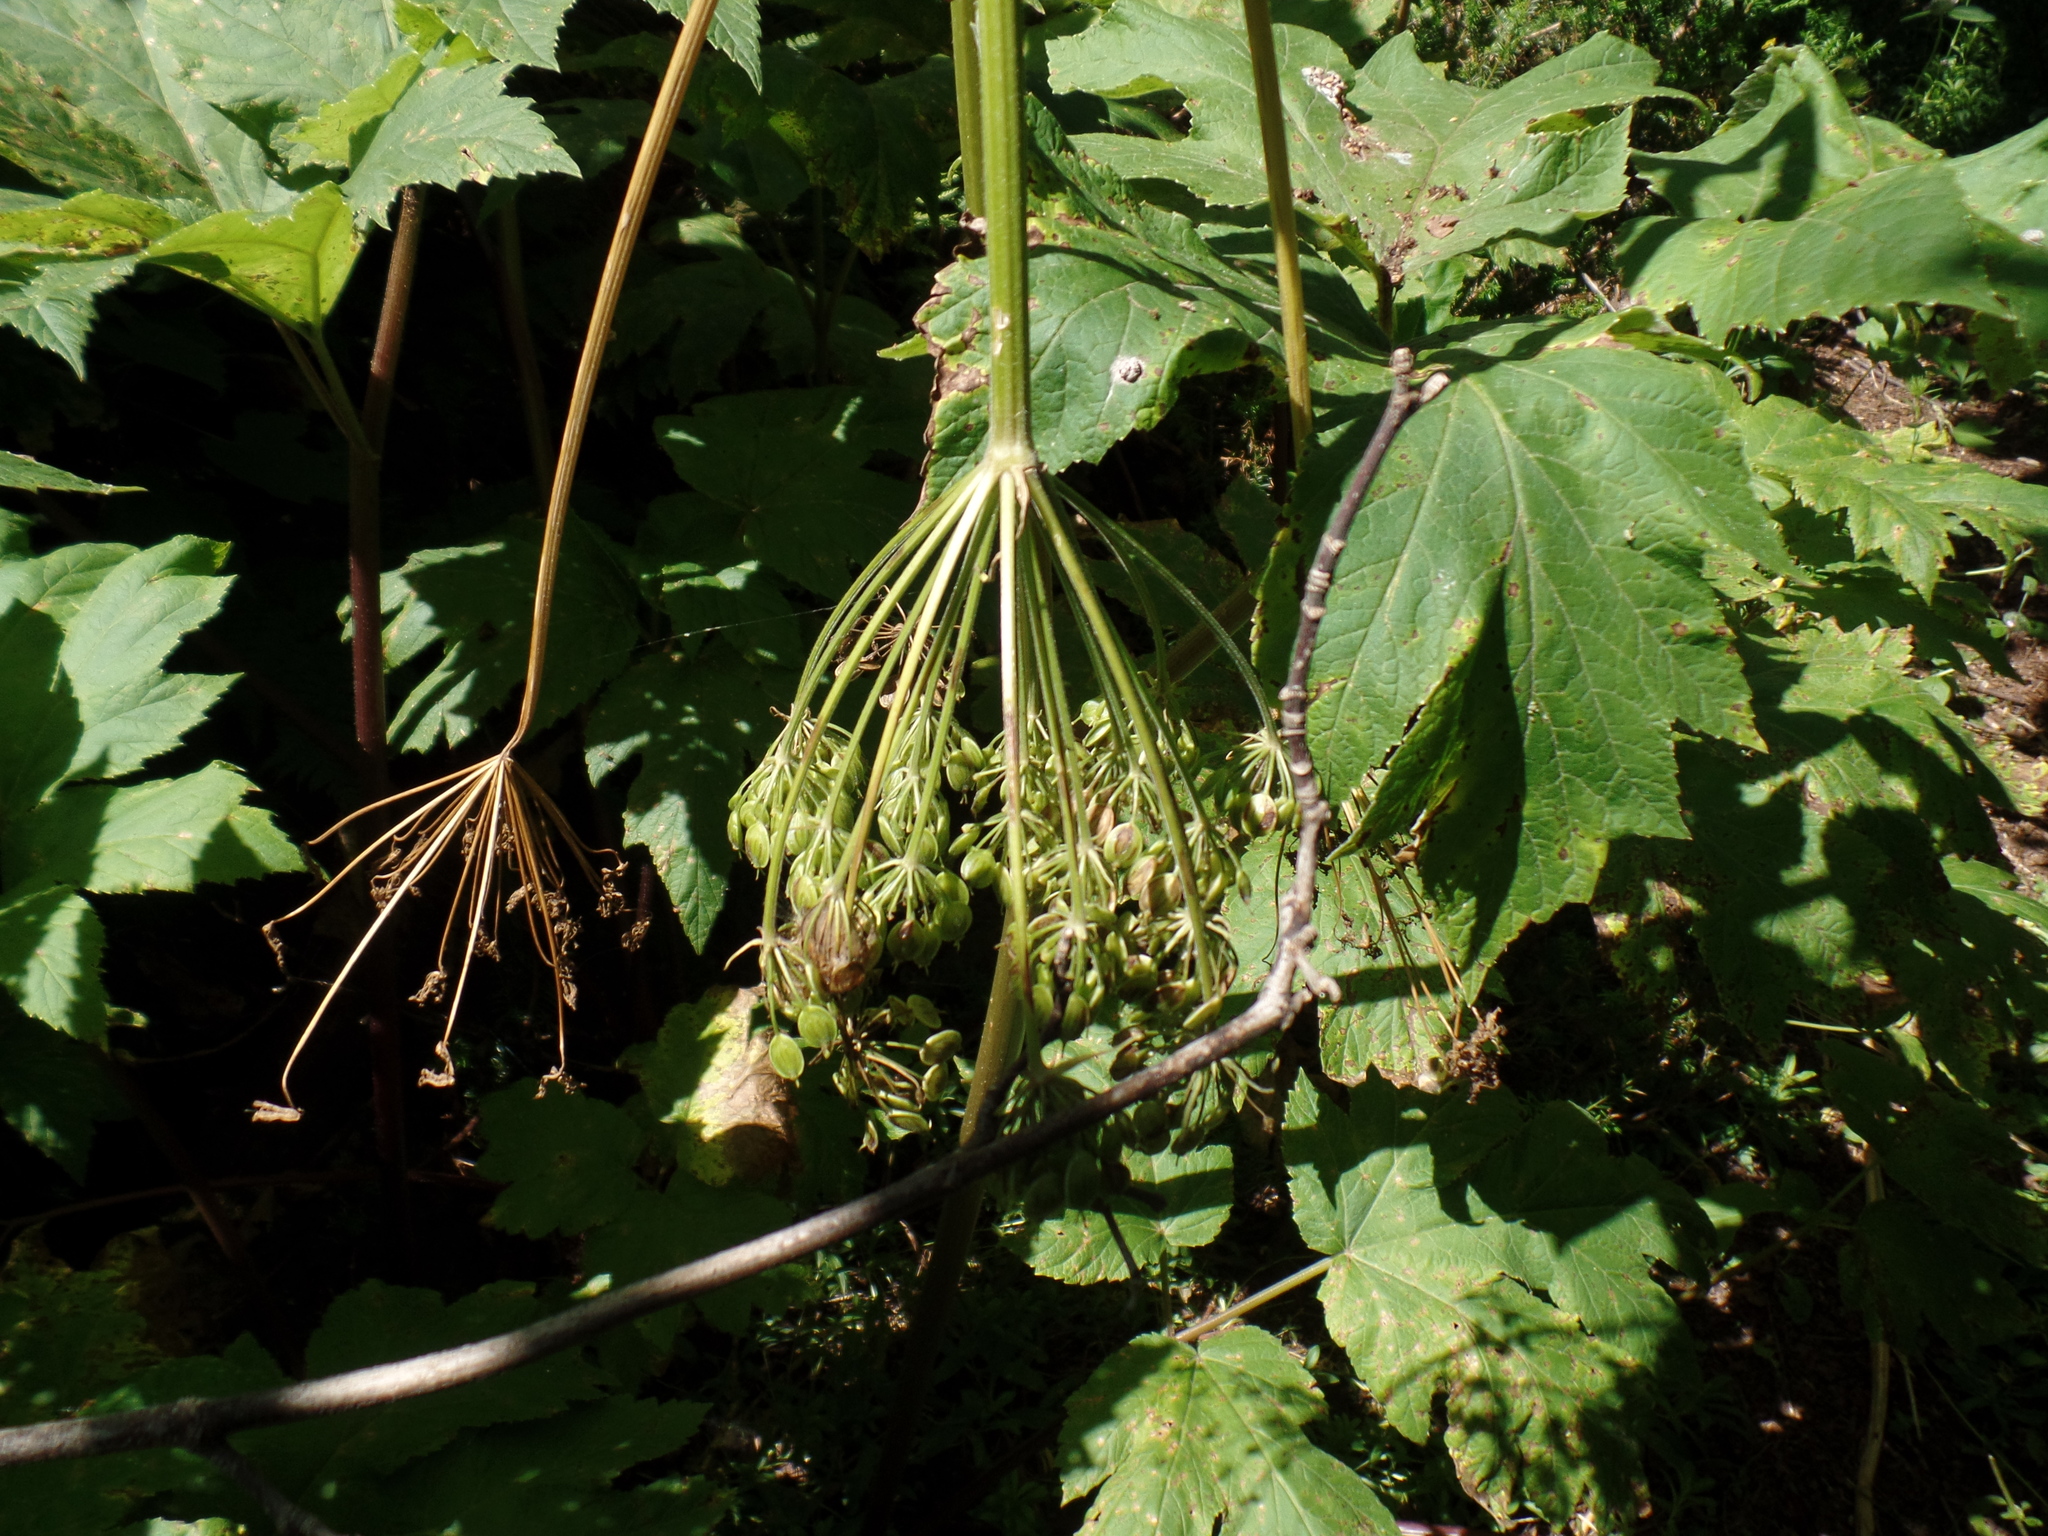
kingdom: Plantae
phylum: Tracheophyta
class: Magnoliopsida
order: Apiales
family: Apiaceae
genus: Heracleum
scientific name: Heracleum maximum
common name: American cow parsnip
